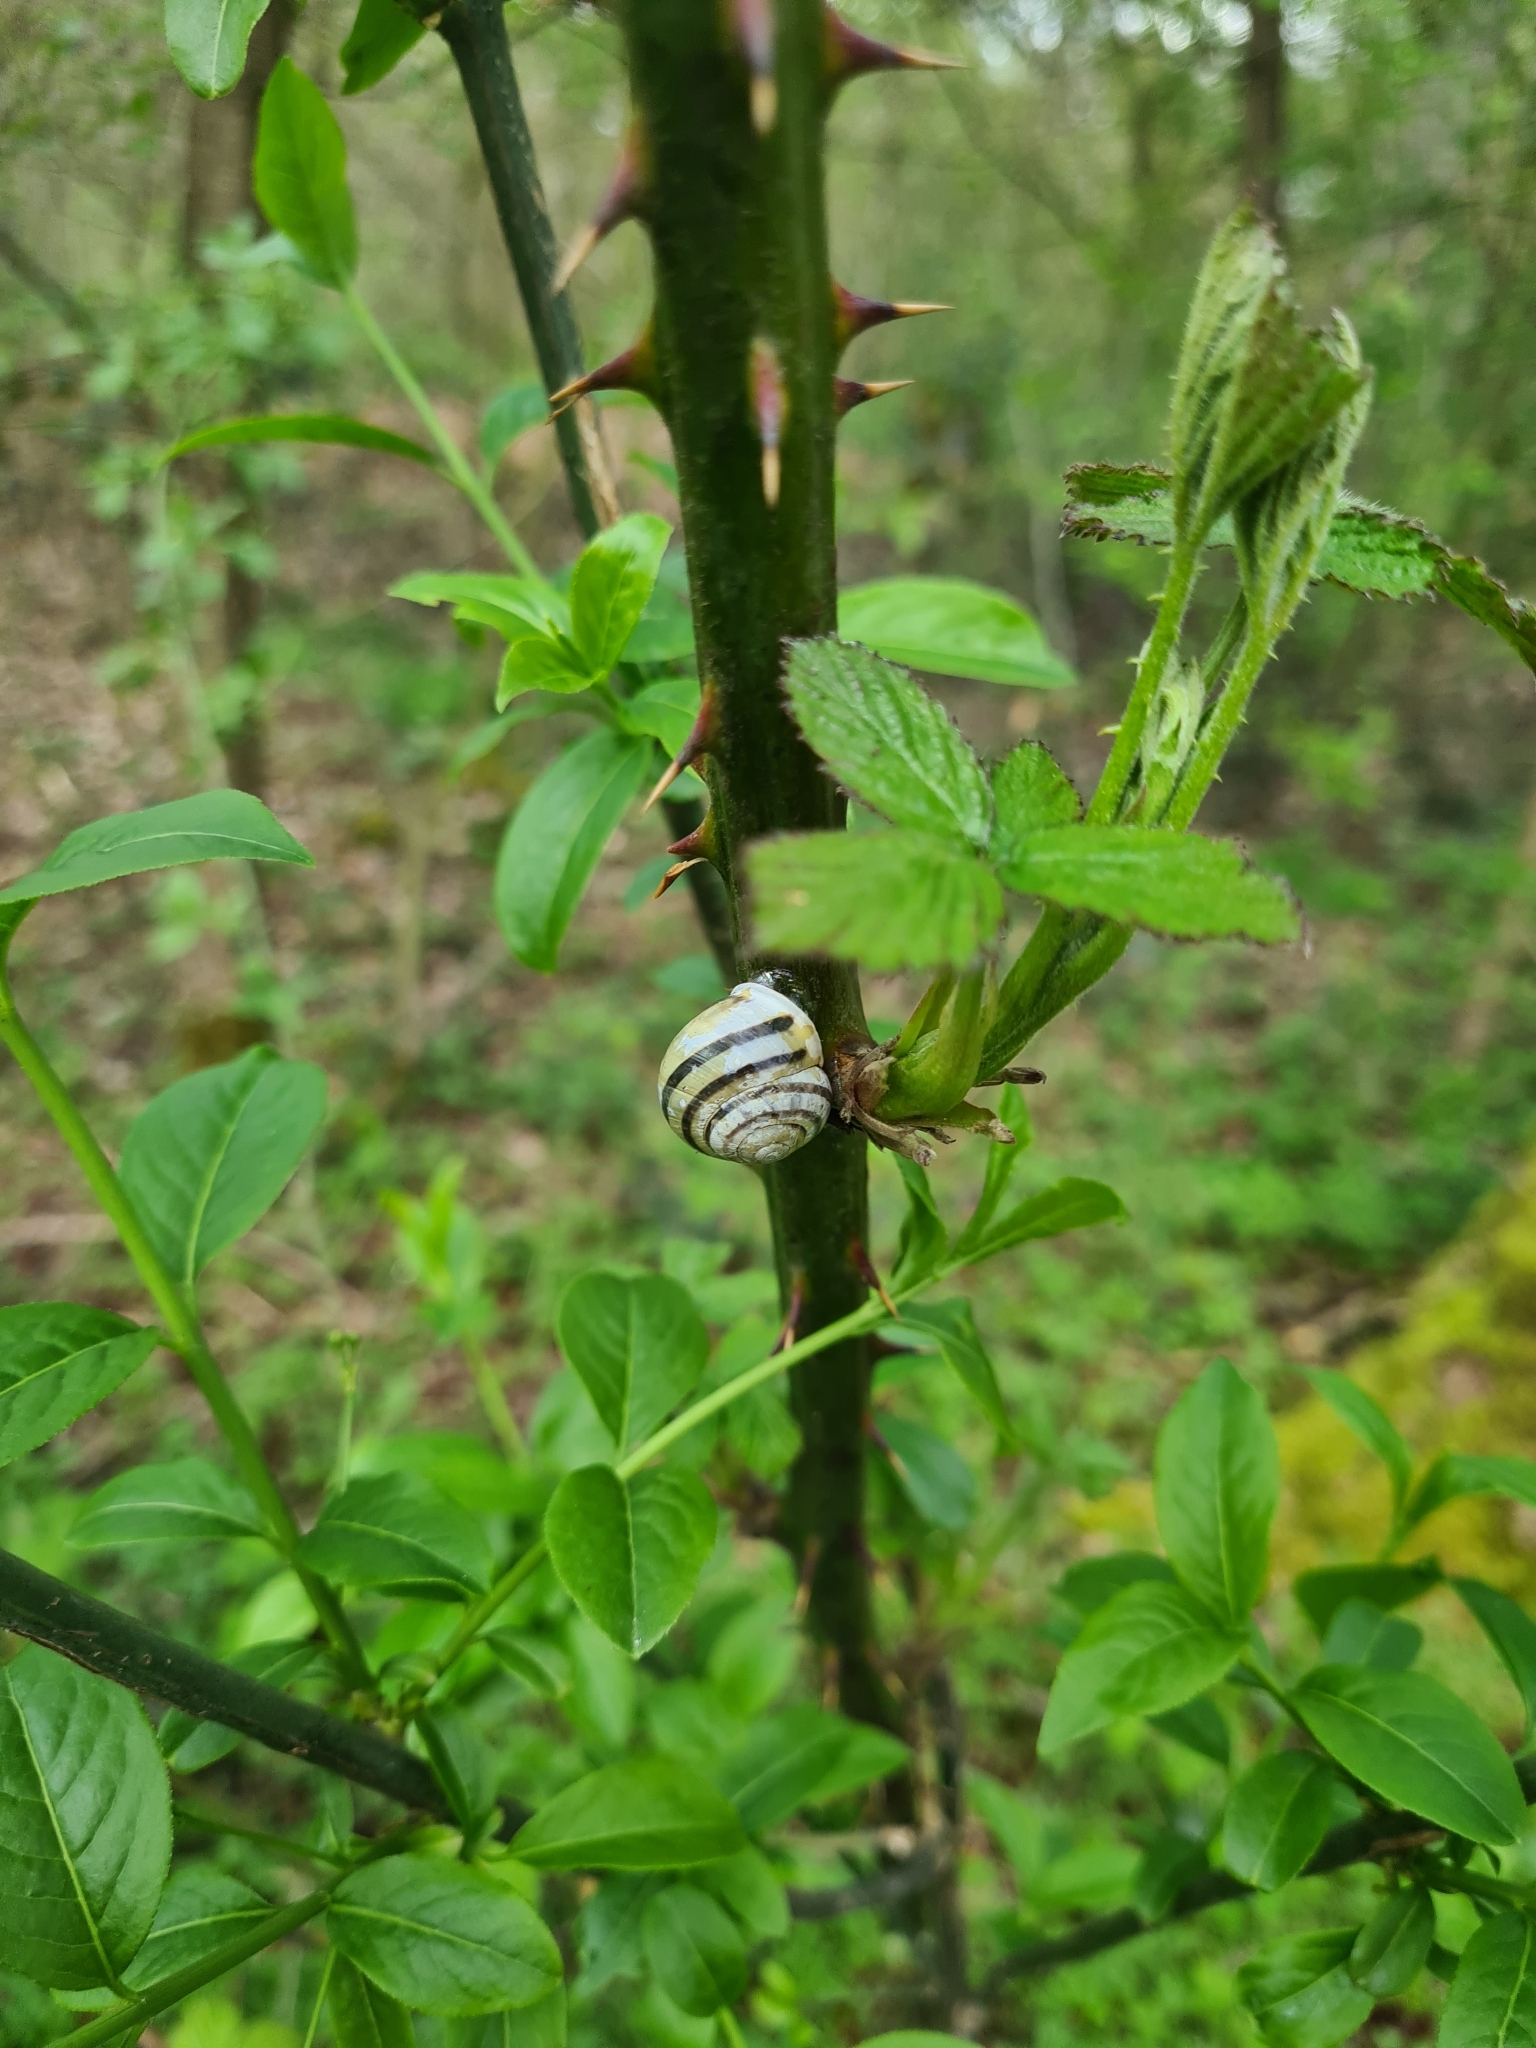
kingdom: Animalia
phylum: Mollusca
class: Gastropoda
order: Stylommatophora
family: Helicidae
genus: Cepaea
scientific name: Cepaea hortensis
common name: White-lip gardensnail
